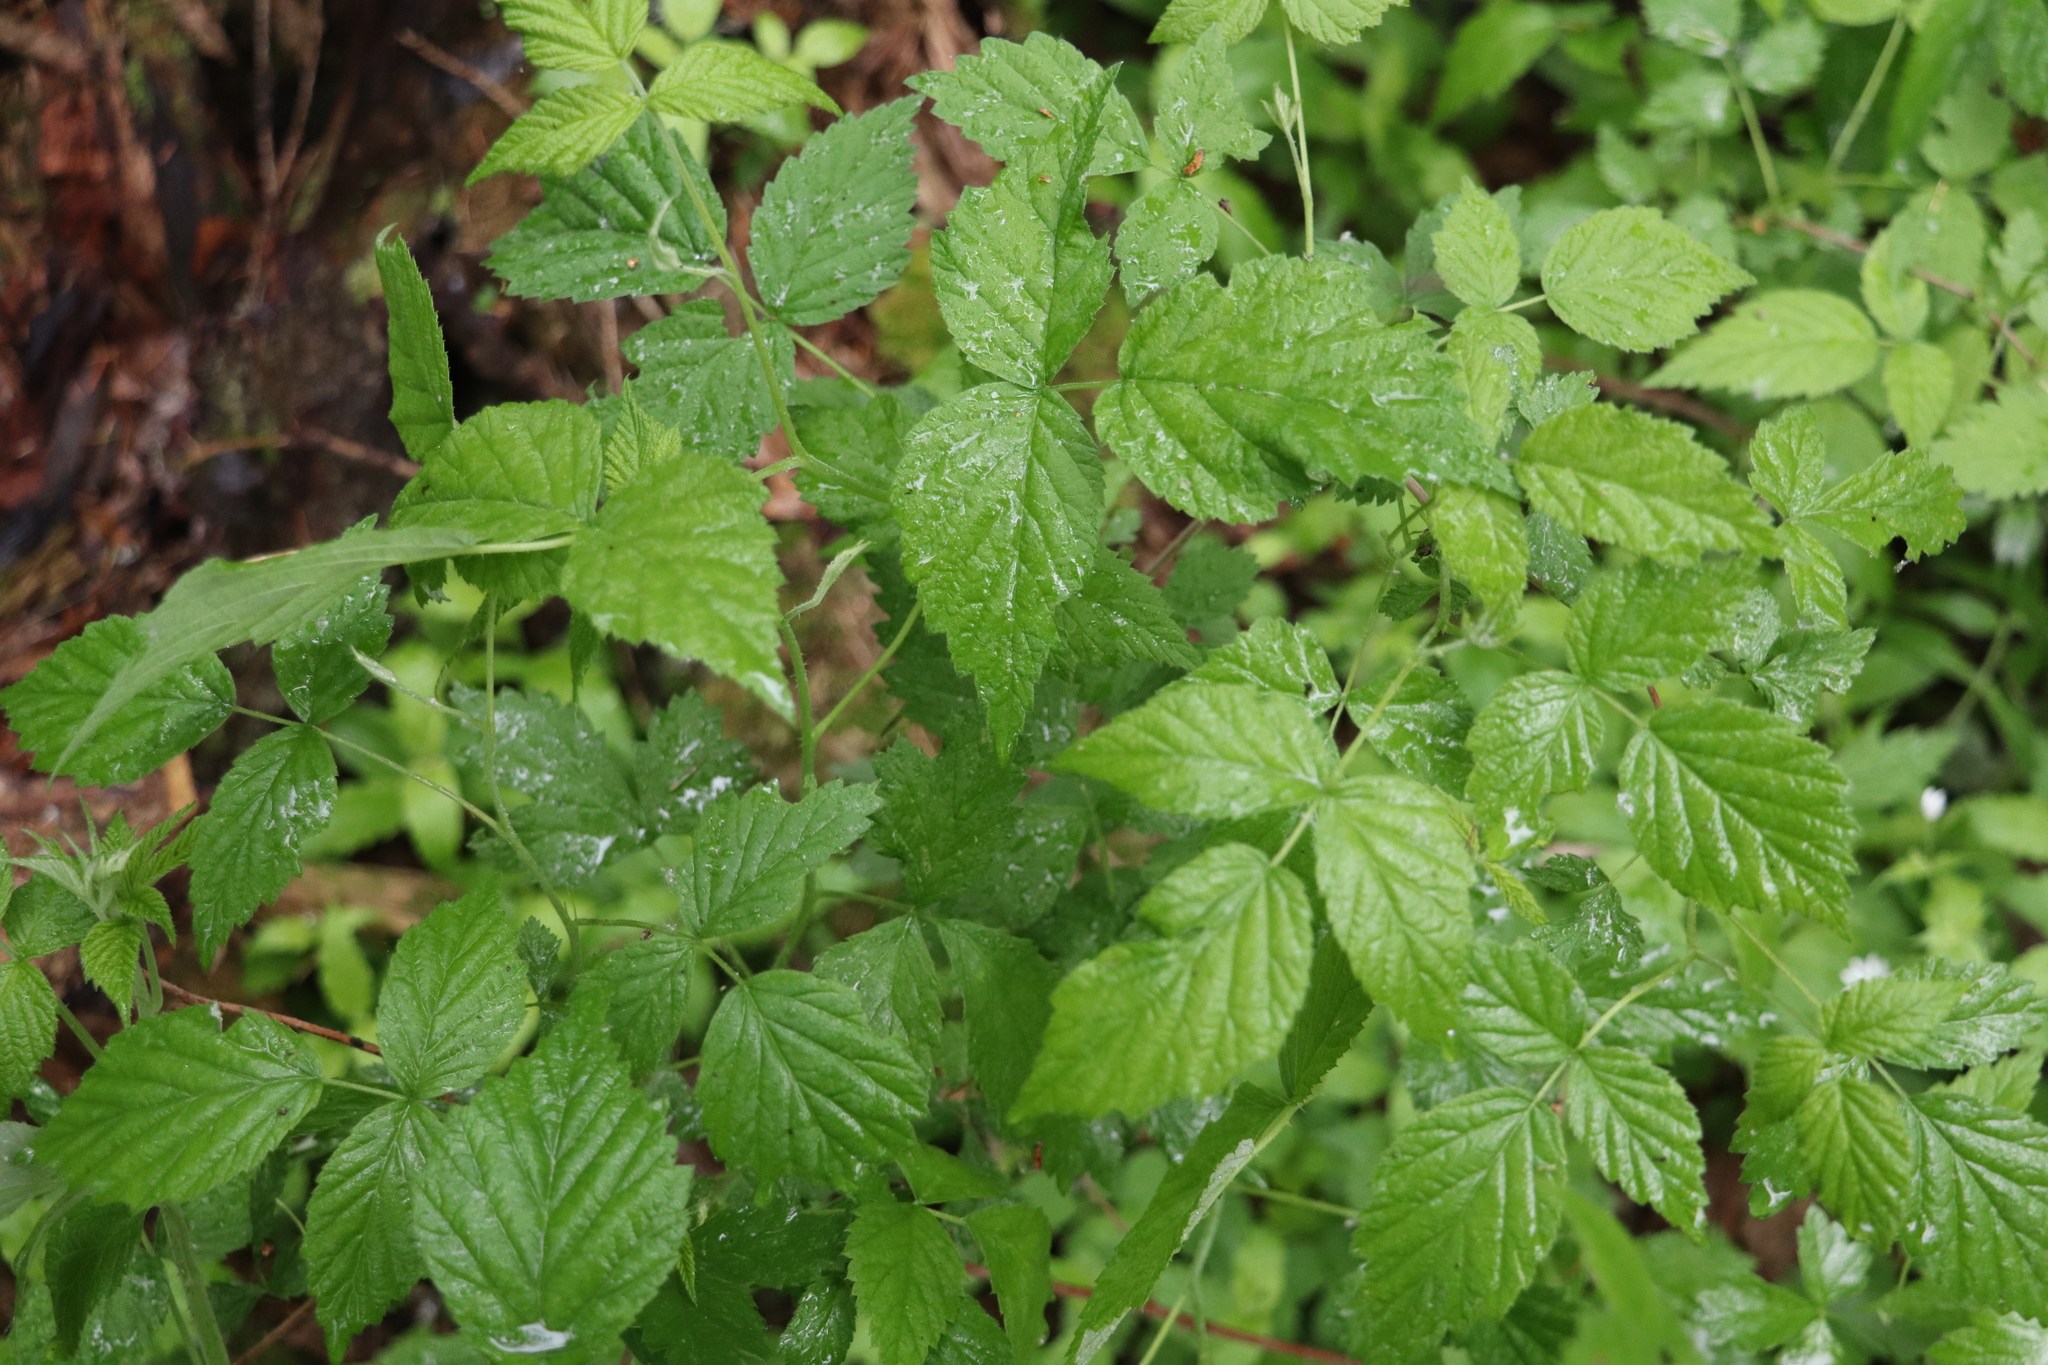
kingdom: Plantae
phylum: Tracheophyta
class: Magnoliopsida
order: Rosales
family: Rosaceae
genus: Rubus
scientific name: Rubus sachalinensis
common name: Red raspberry
